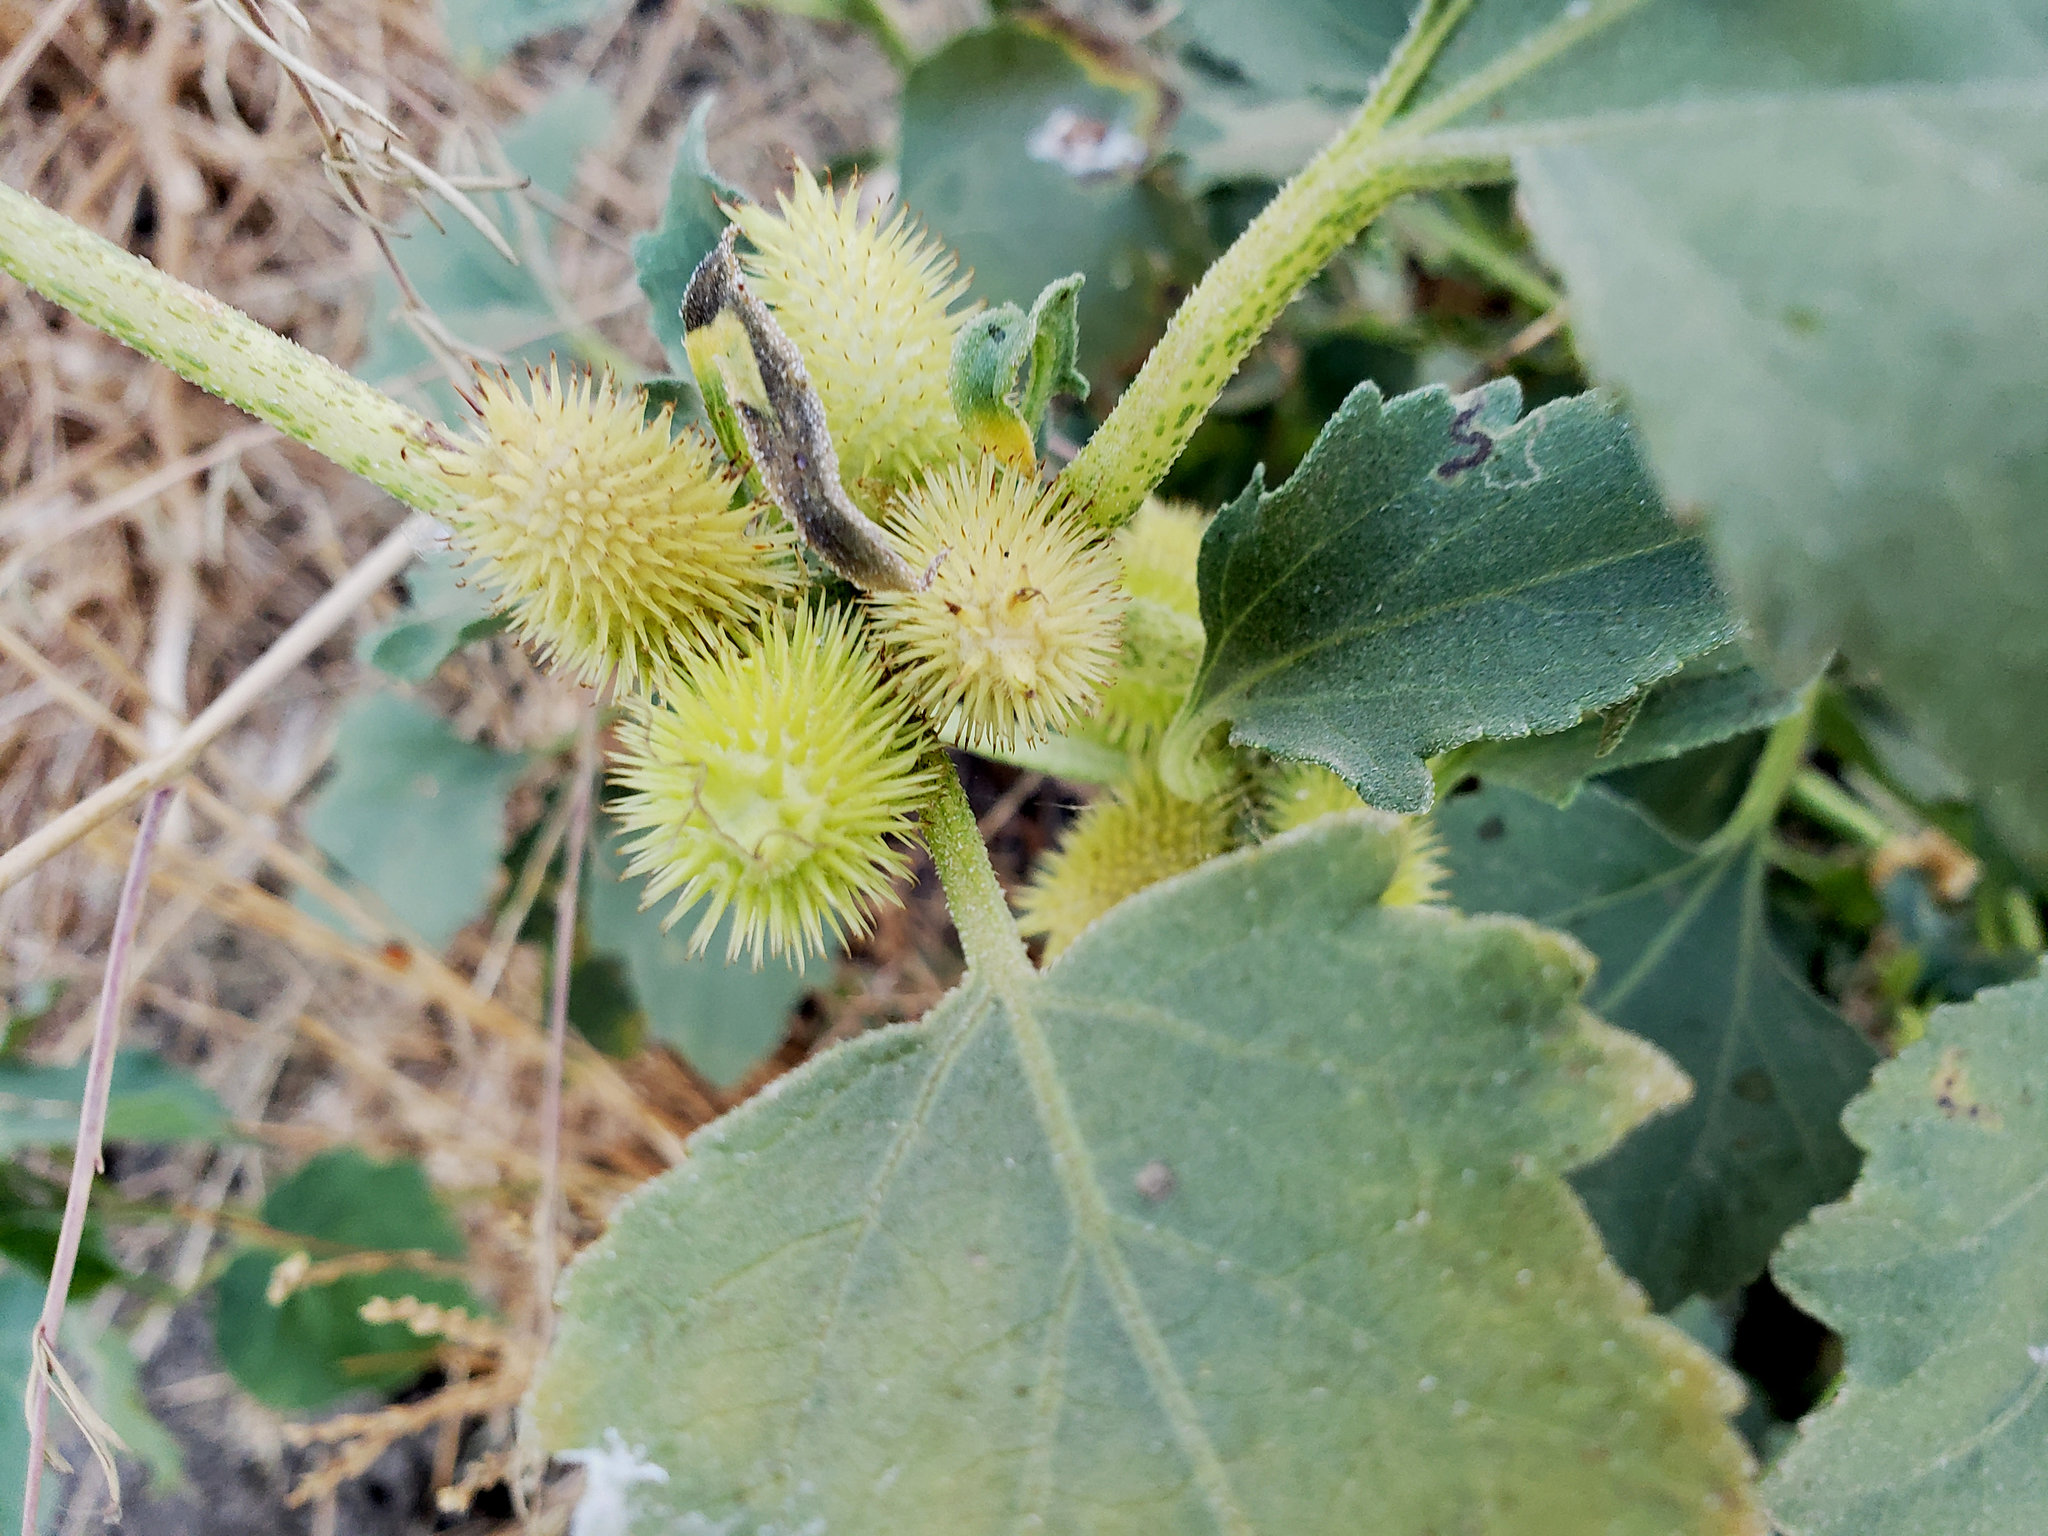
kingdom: Plantae
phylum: Tracheophyta
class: Magnoliopsida
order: Asterales
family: Asteraceae
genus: Xanthium
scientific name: Xanthium strumarium
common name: Rough cocklebur
